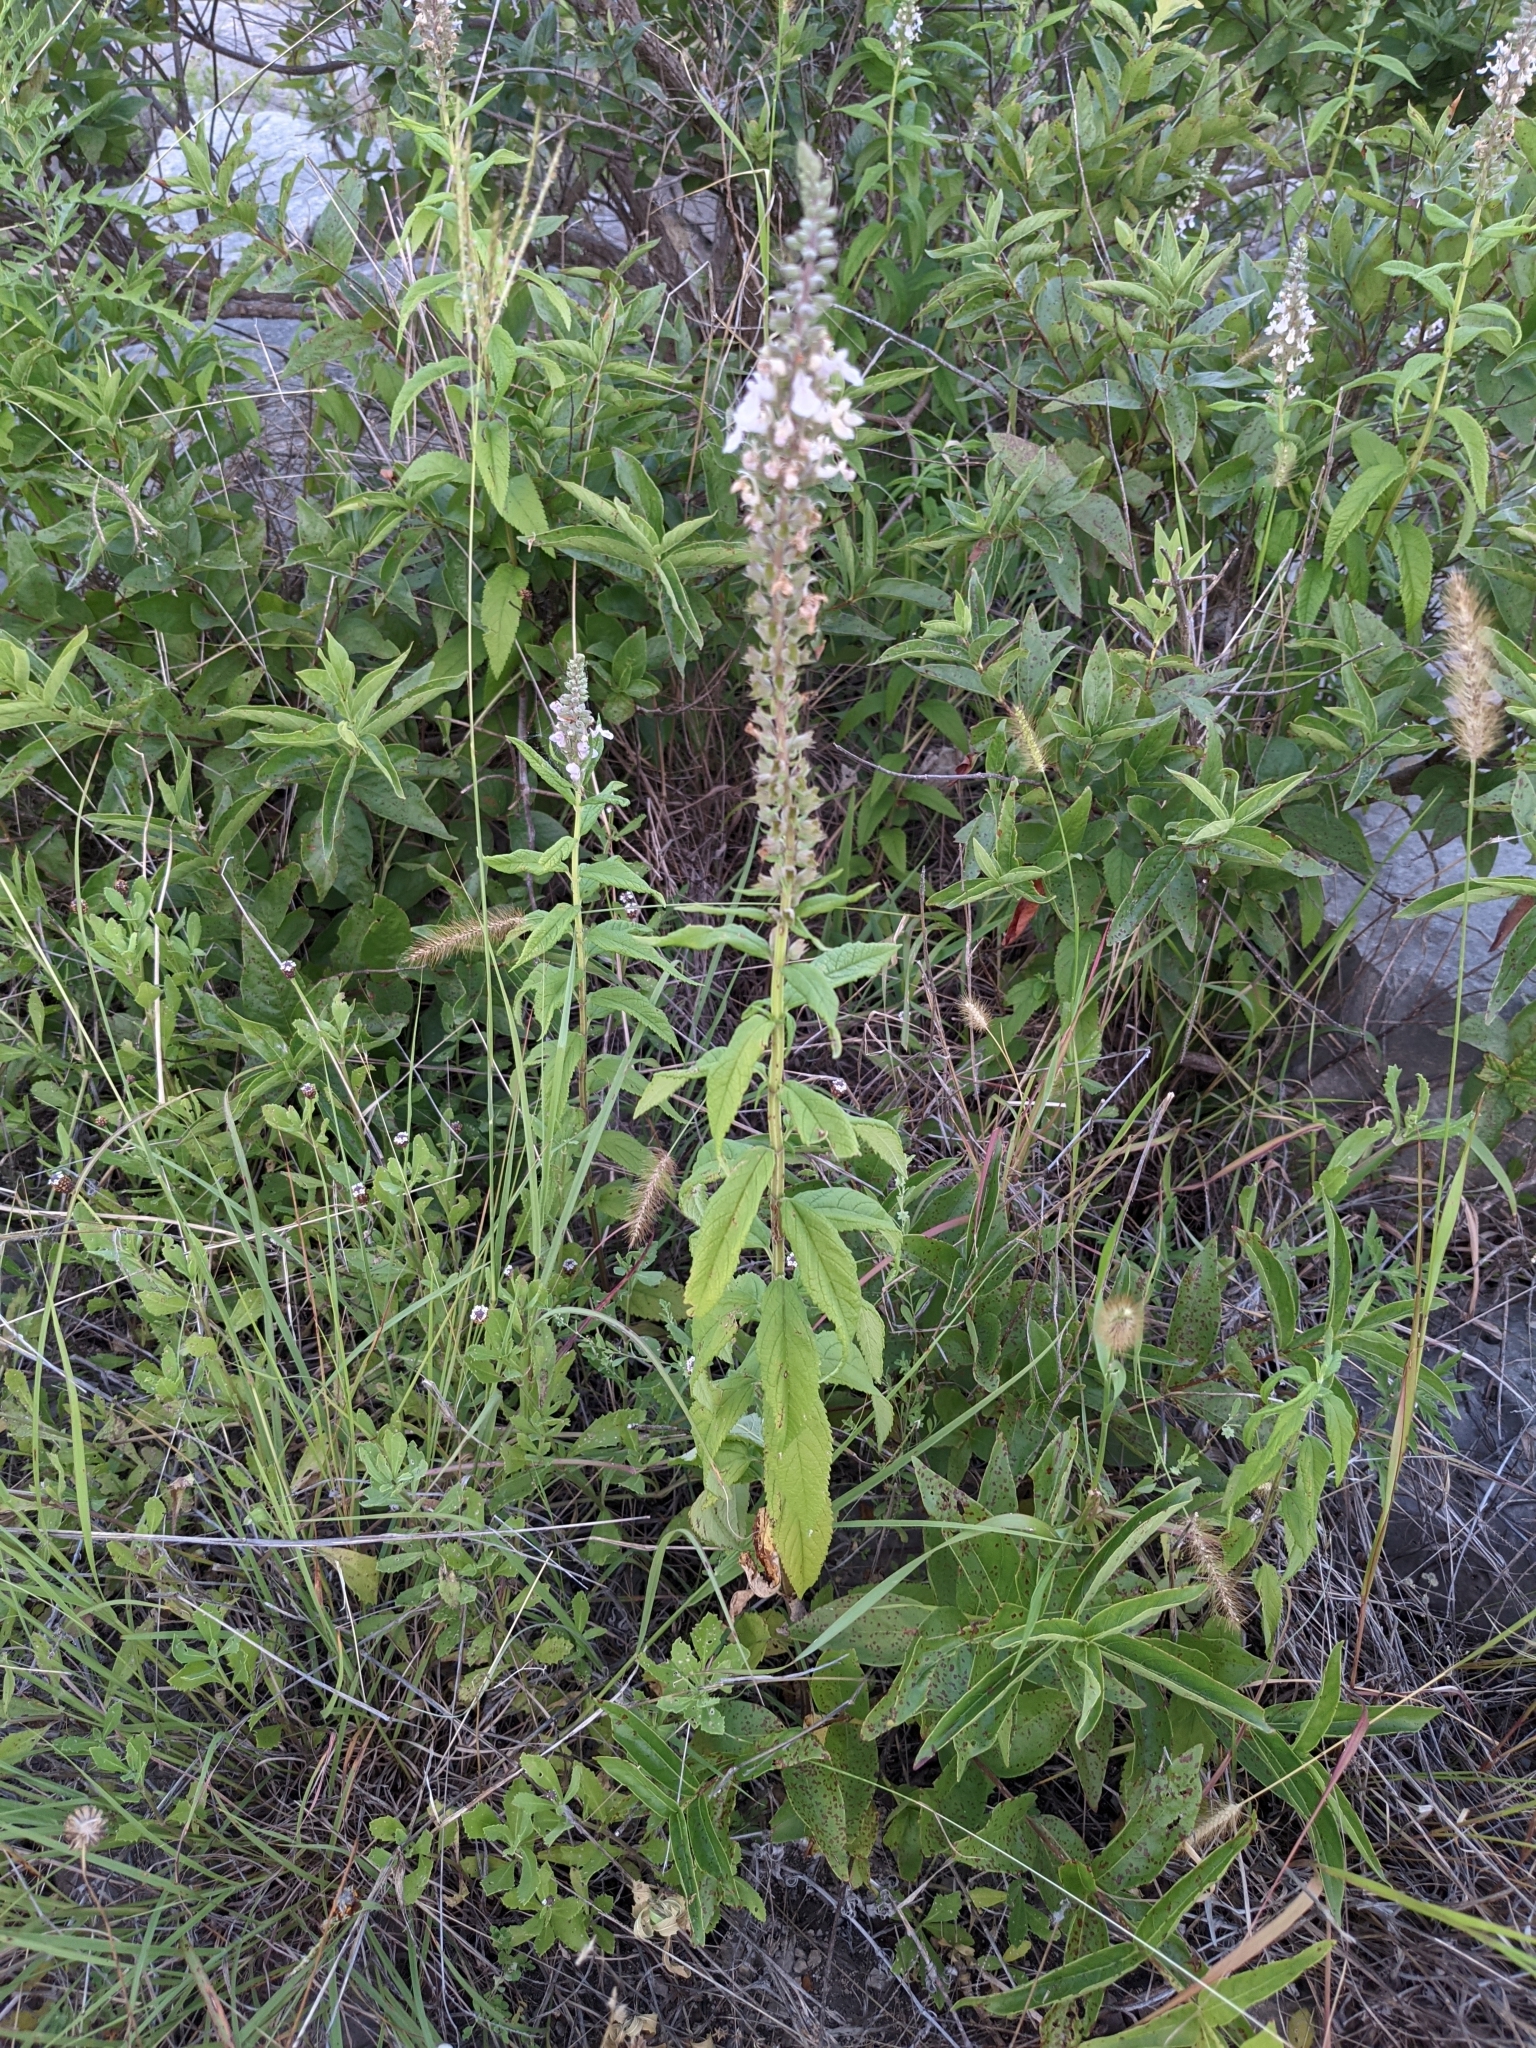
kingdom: Plantae
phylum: Tracheophyta
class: Magnoliopsida
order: Lamiales
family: Lamiaceae
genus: Teucrium
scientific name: Teucrium canadense
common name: American germander
